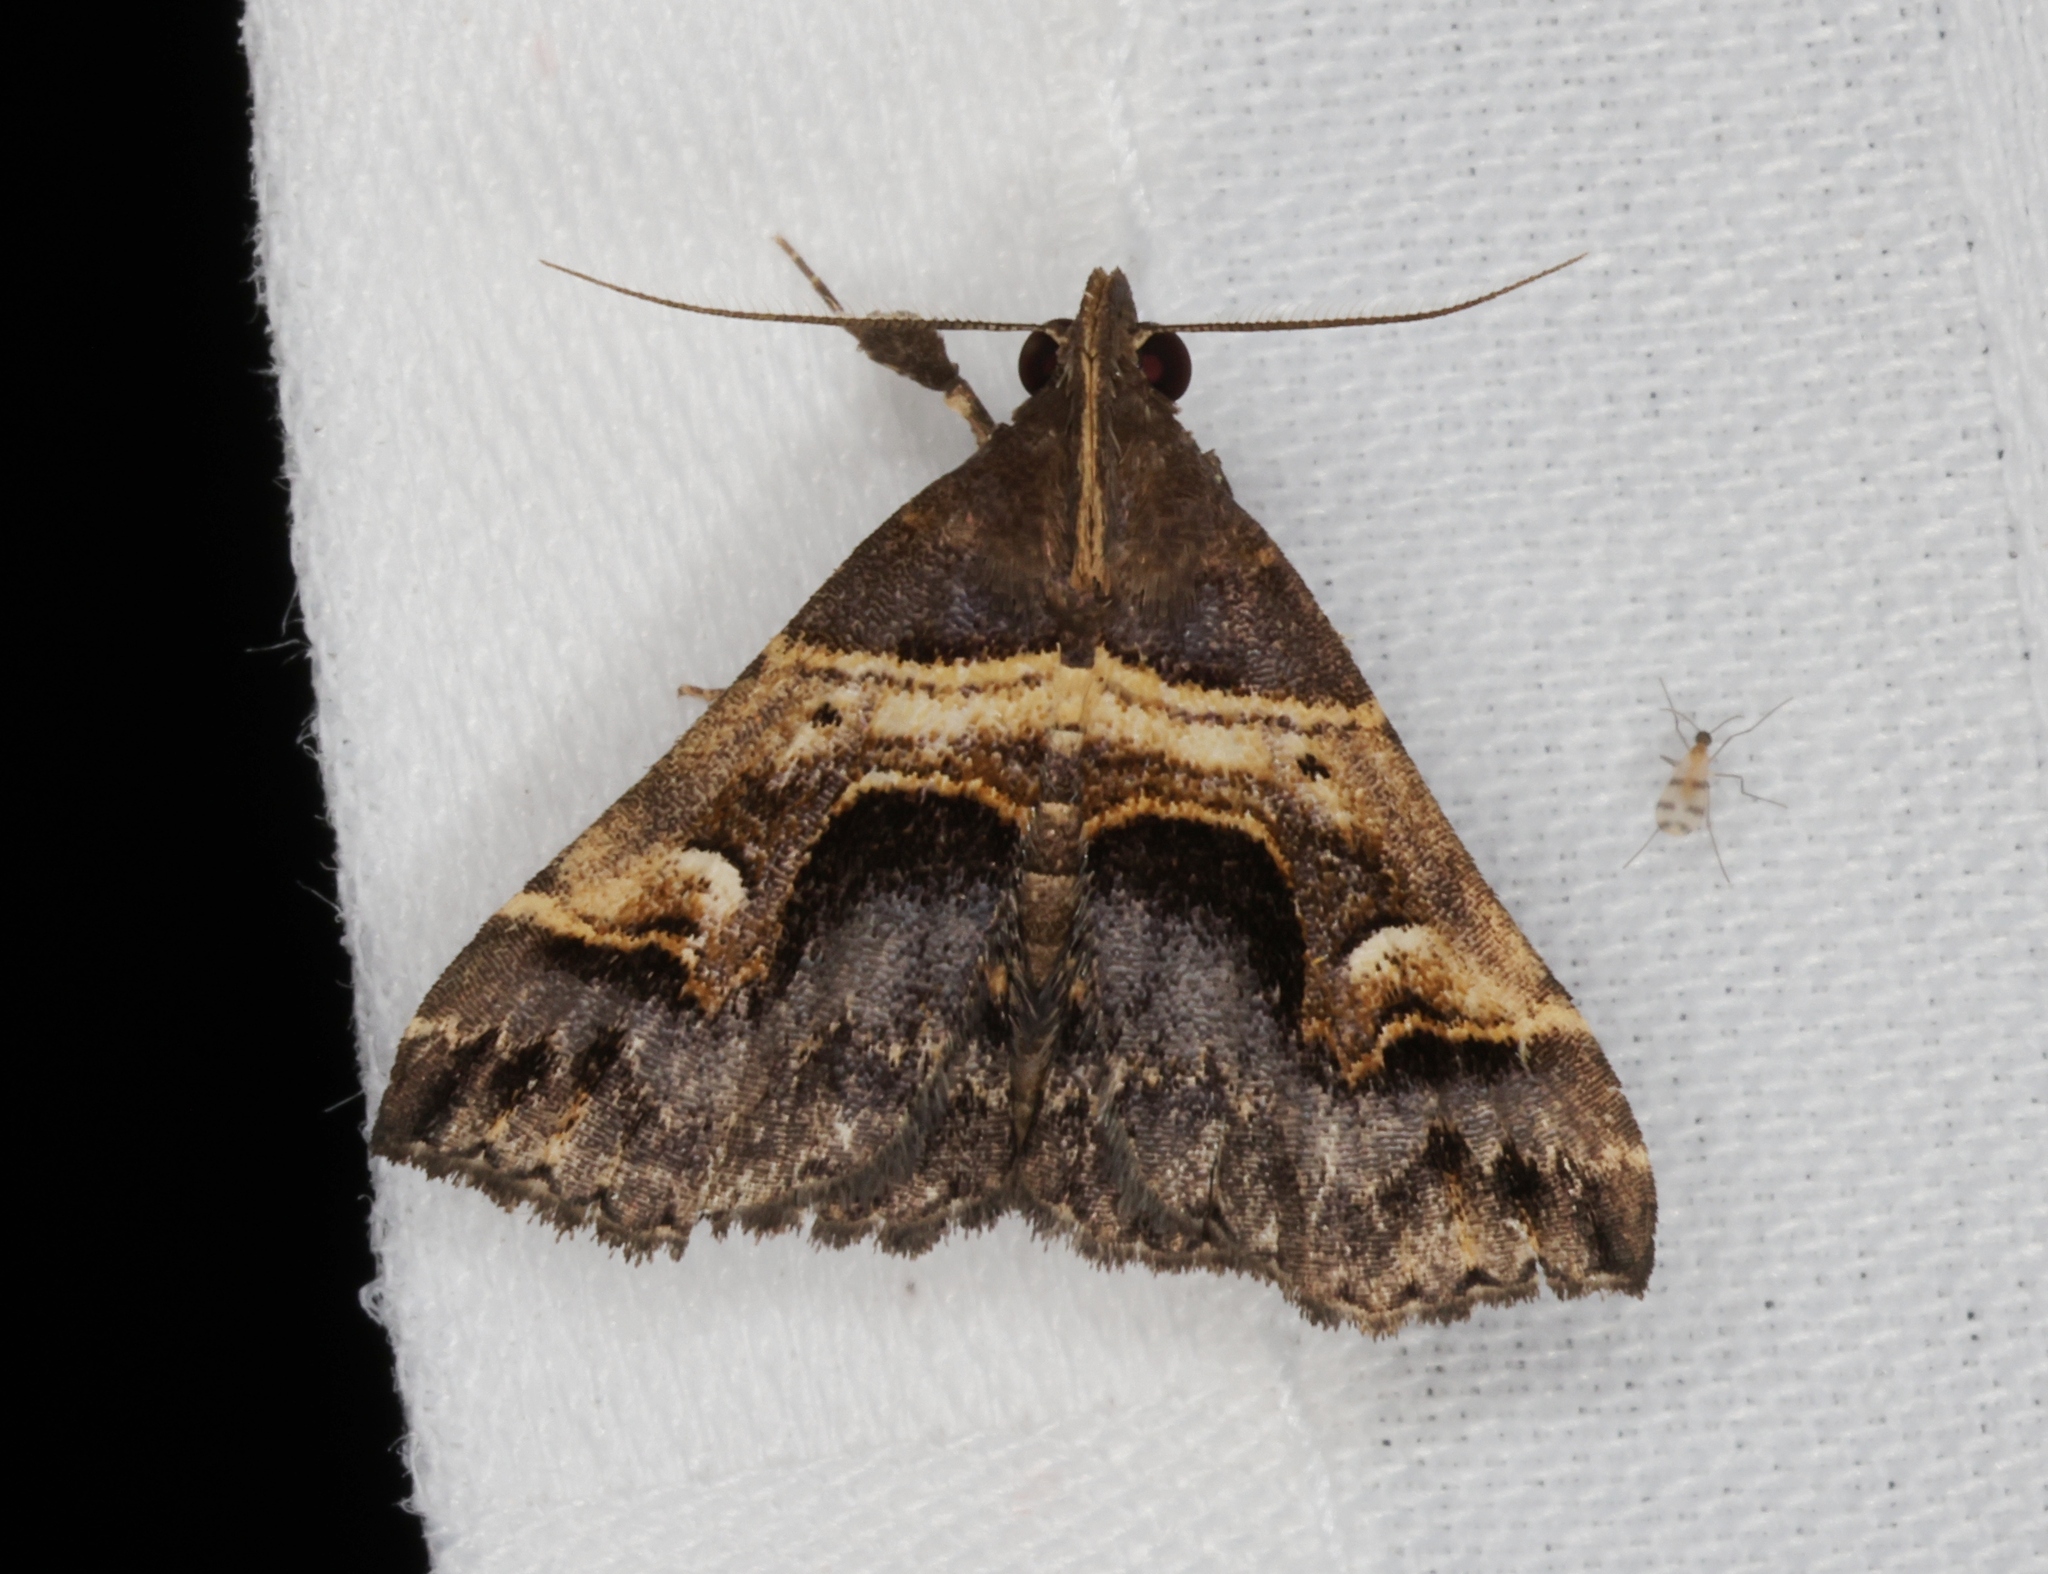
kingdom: Animalia
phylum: Arthropoda
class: Insecta
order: Lepidoptera
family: Erebidae
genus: Bertula
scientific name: Bertula retracta
